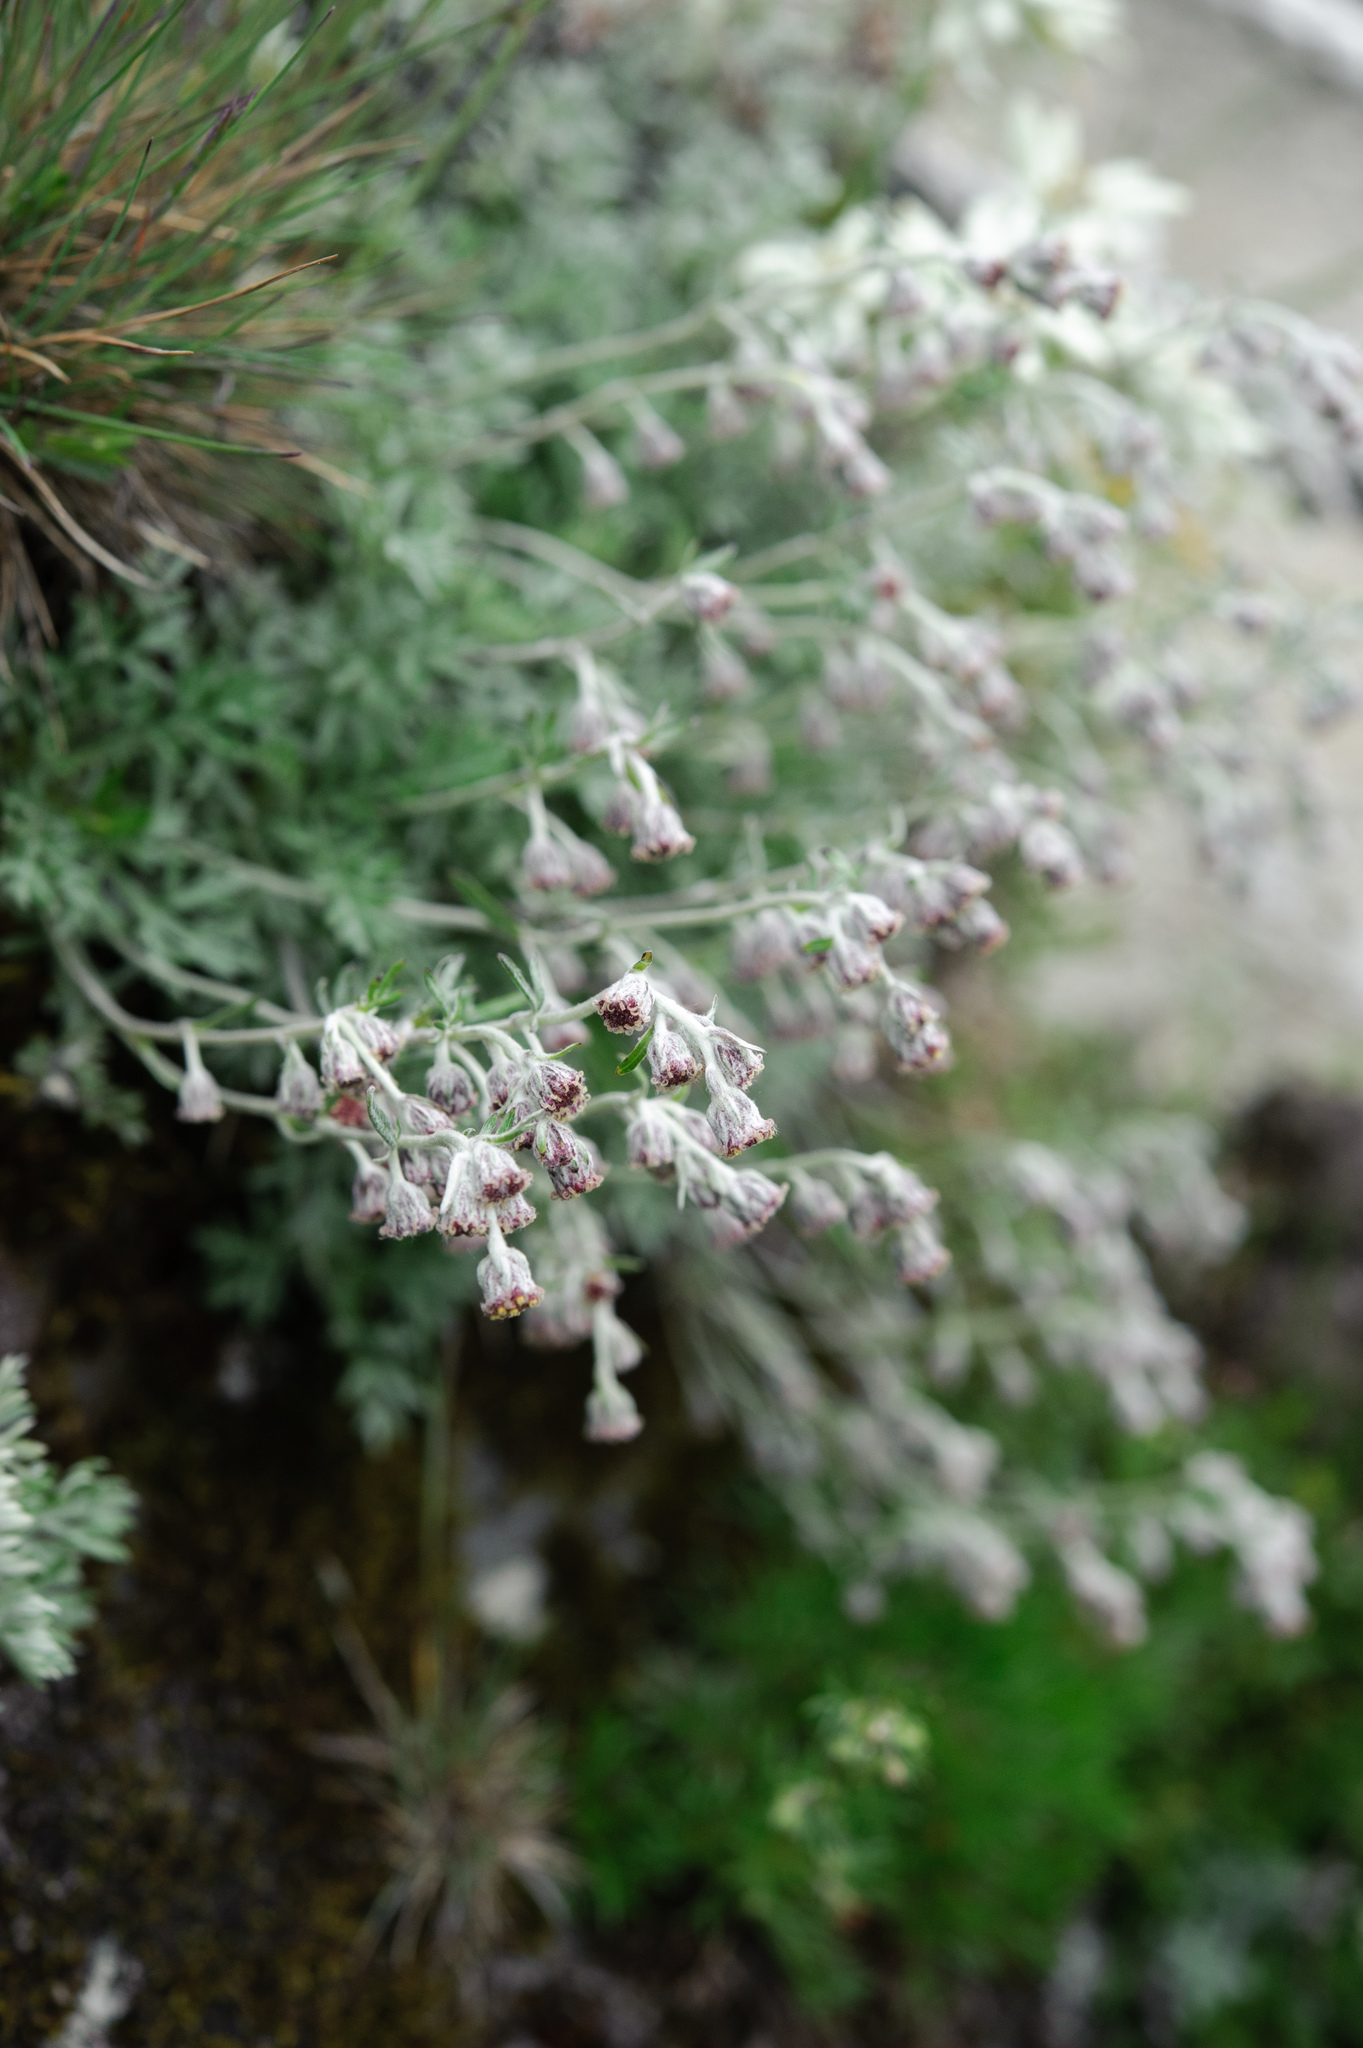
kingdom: Plantae
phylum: Tracheophyta
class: Magnoliopsida
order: Asterales
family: Asteraceae
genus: Artemisia
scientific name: Artemisia kawakamii
